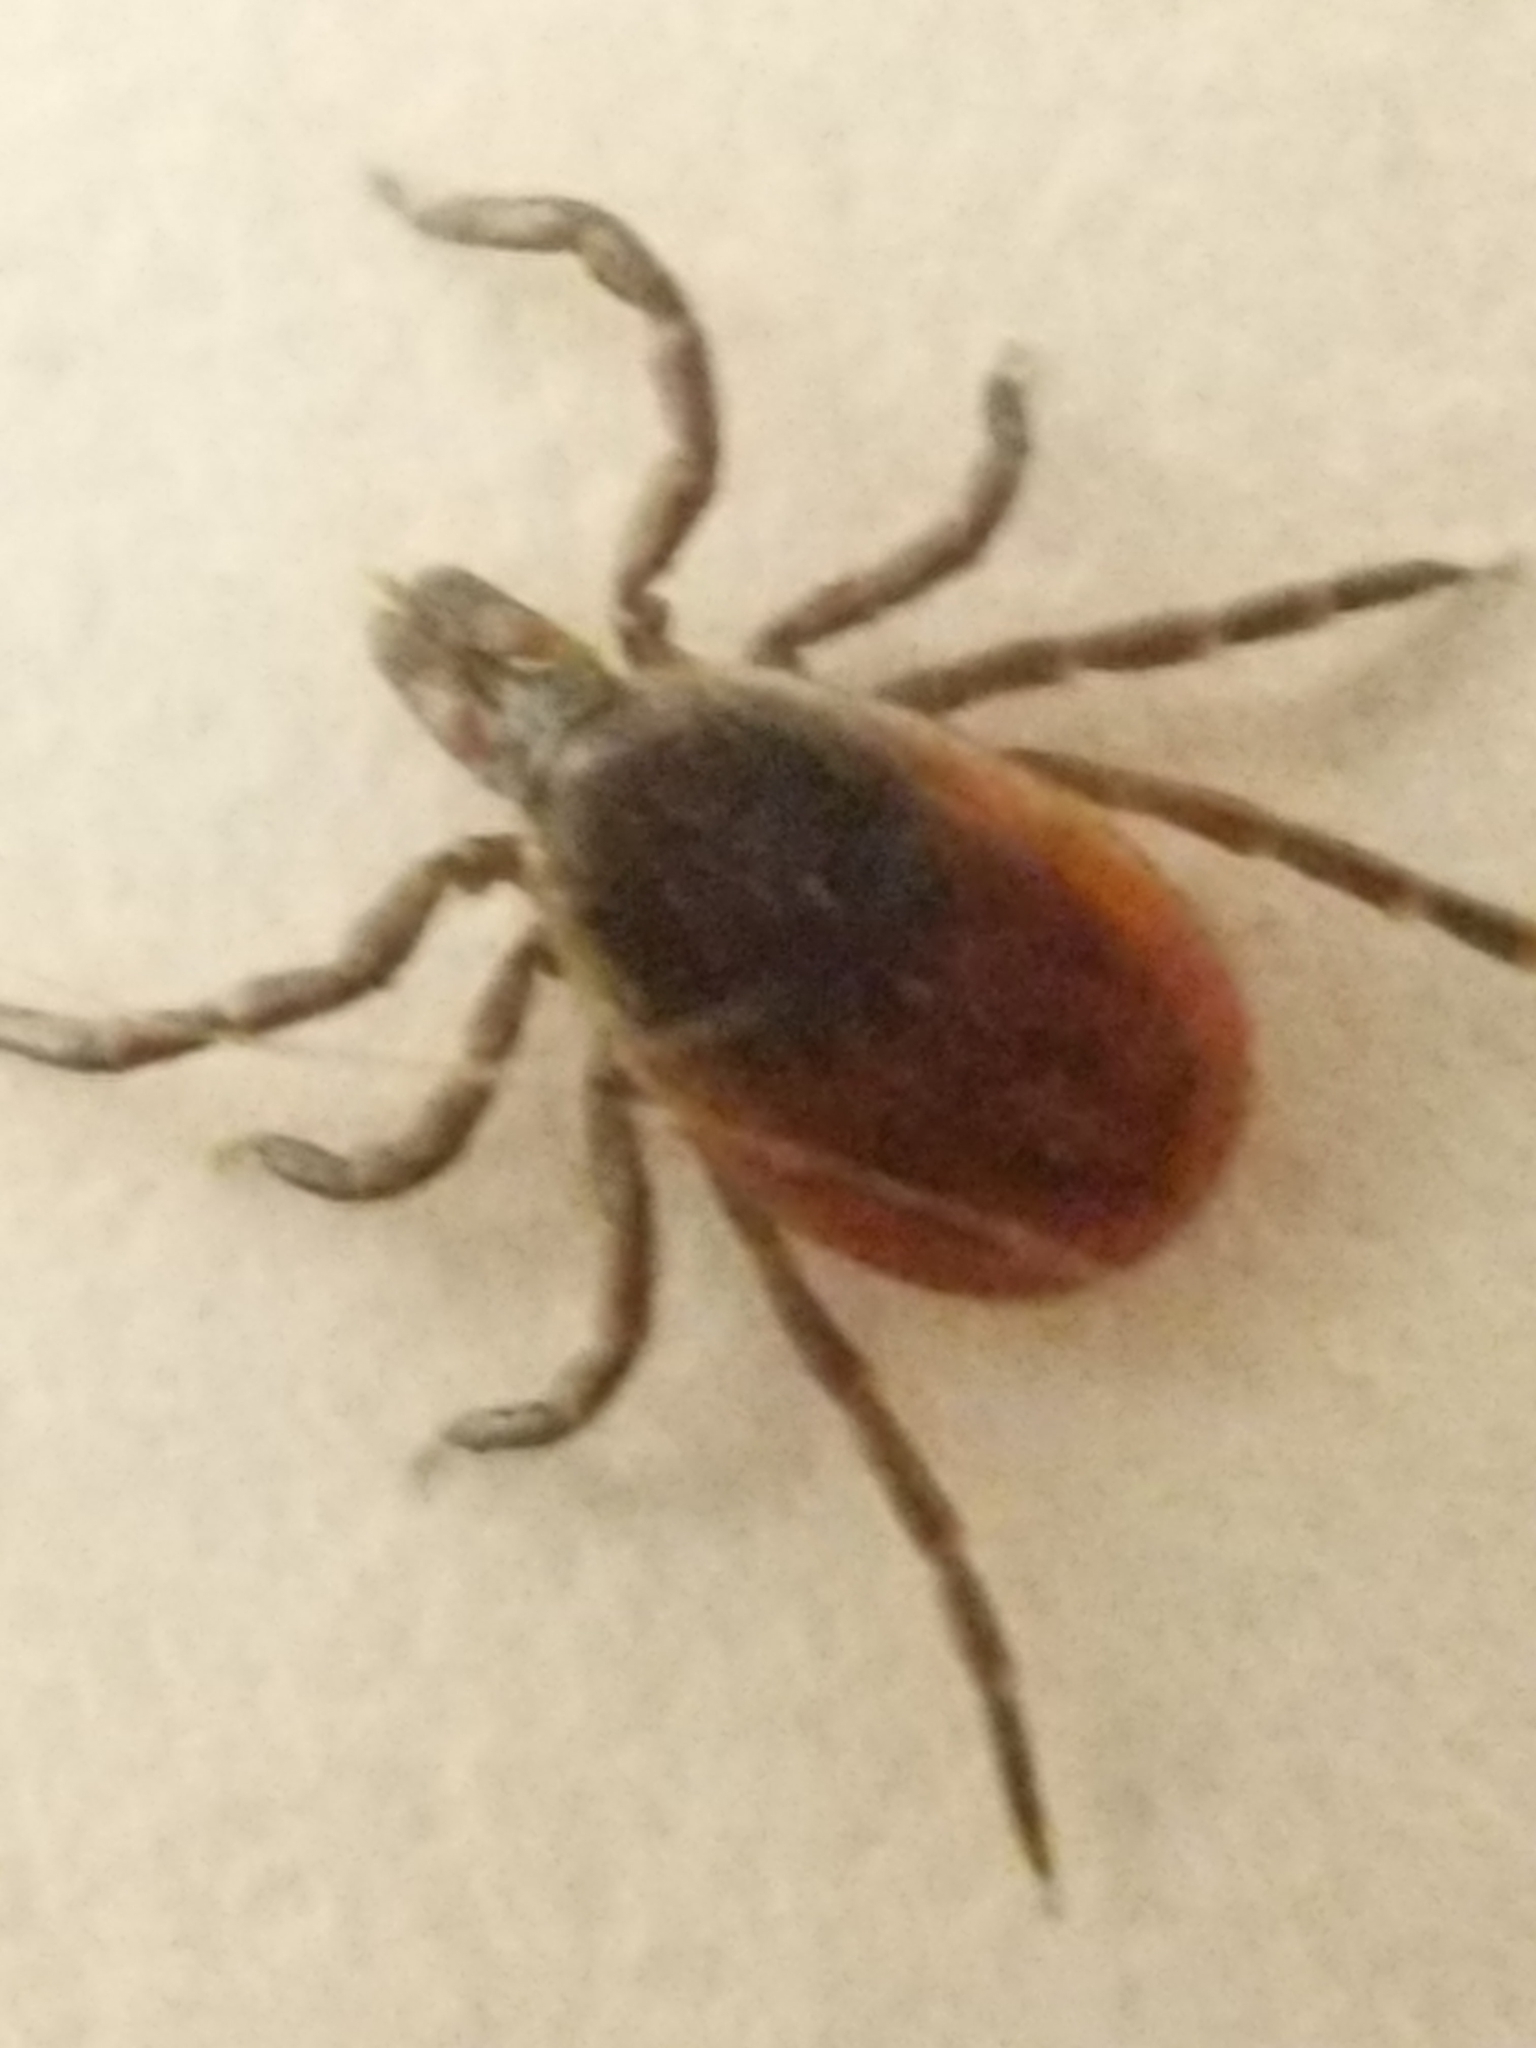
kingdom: Animalia
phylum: Arthropoda
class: Arachnida
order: Ixodida
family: Ixodidae
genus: Ixodes
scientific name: Ixodes scapularis
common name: Black legged tick
